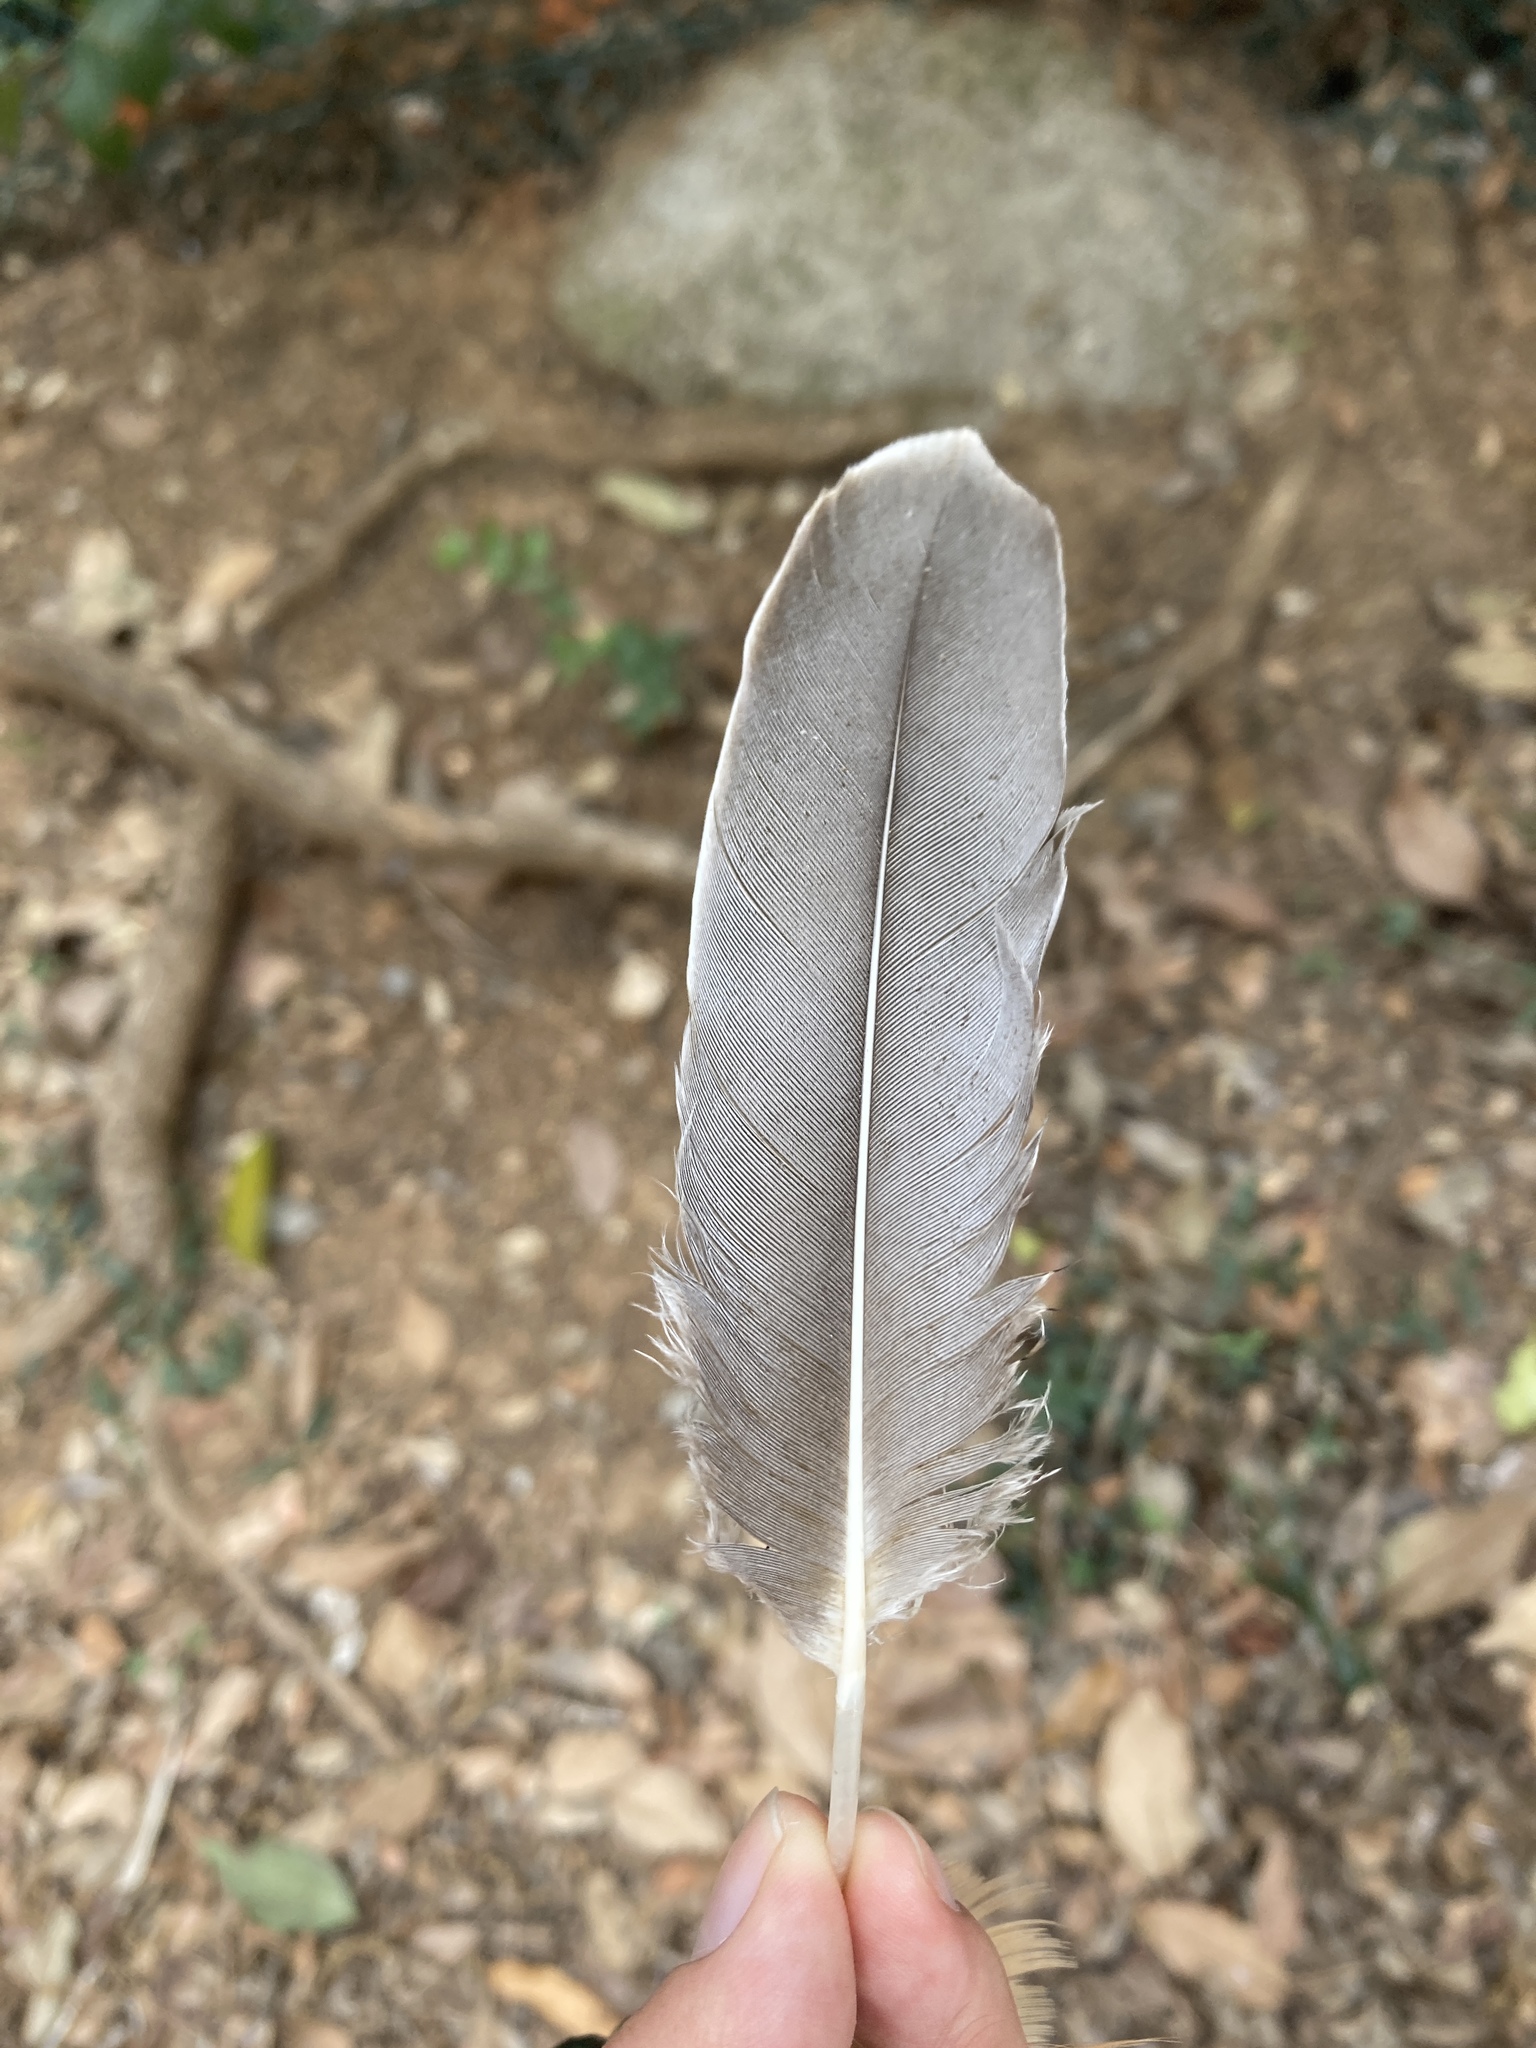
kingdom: Animalia
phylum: Chordata
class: Aves
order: Anseriformes
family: Anatidae
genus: Anser
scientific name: Anser anser
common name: Greylag goose
